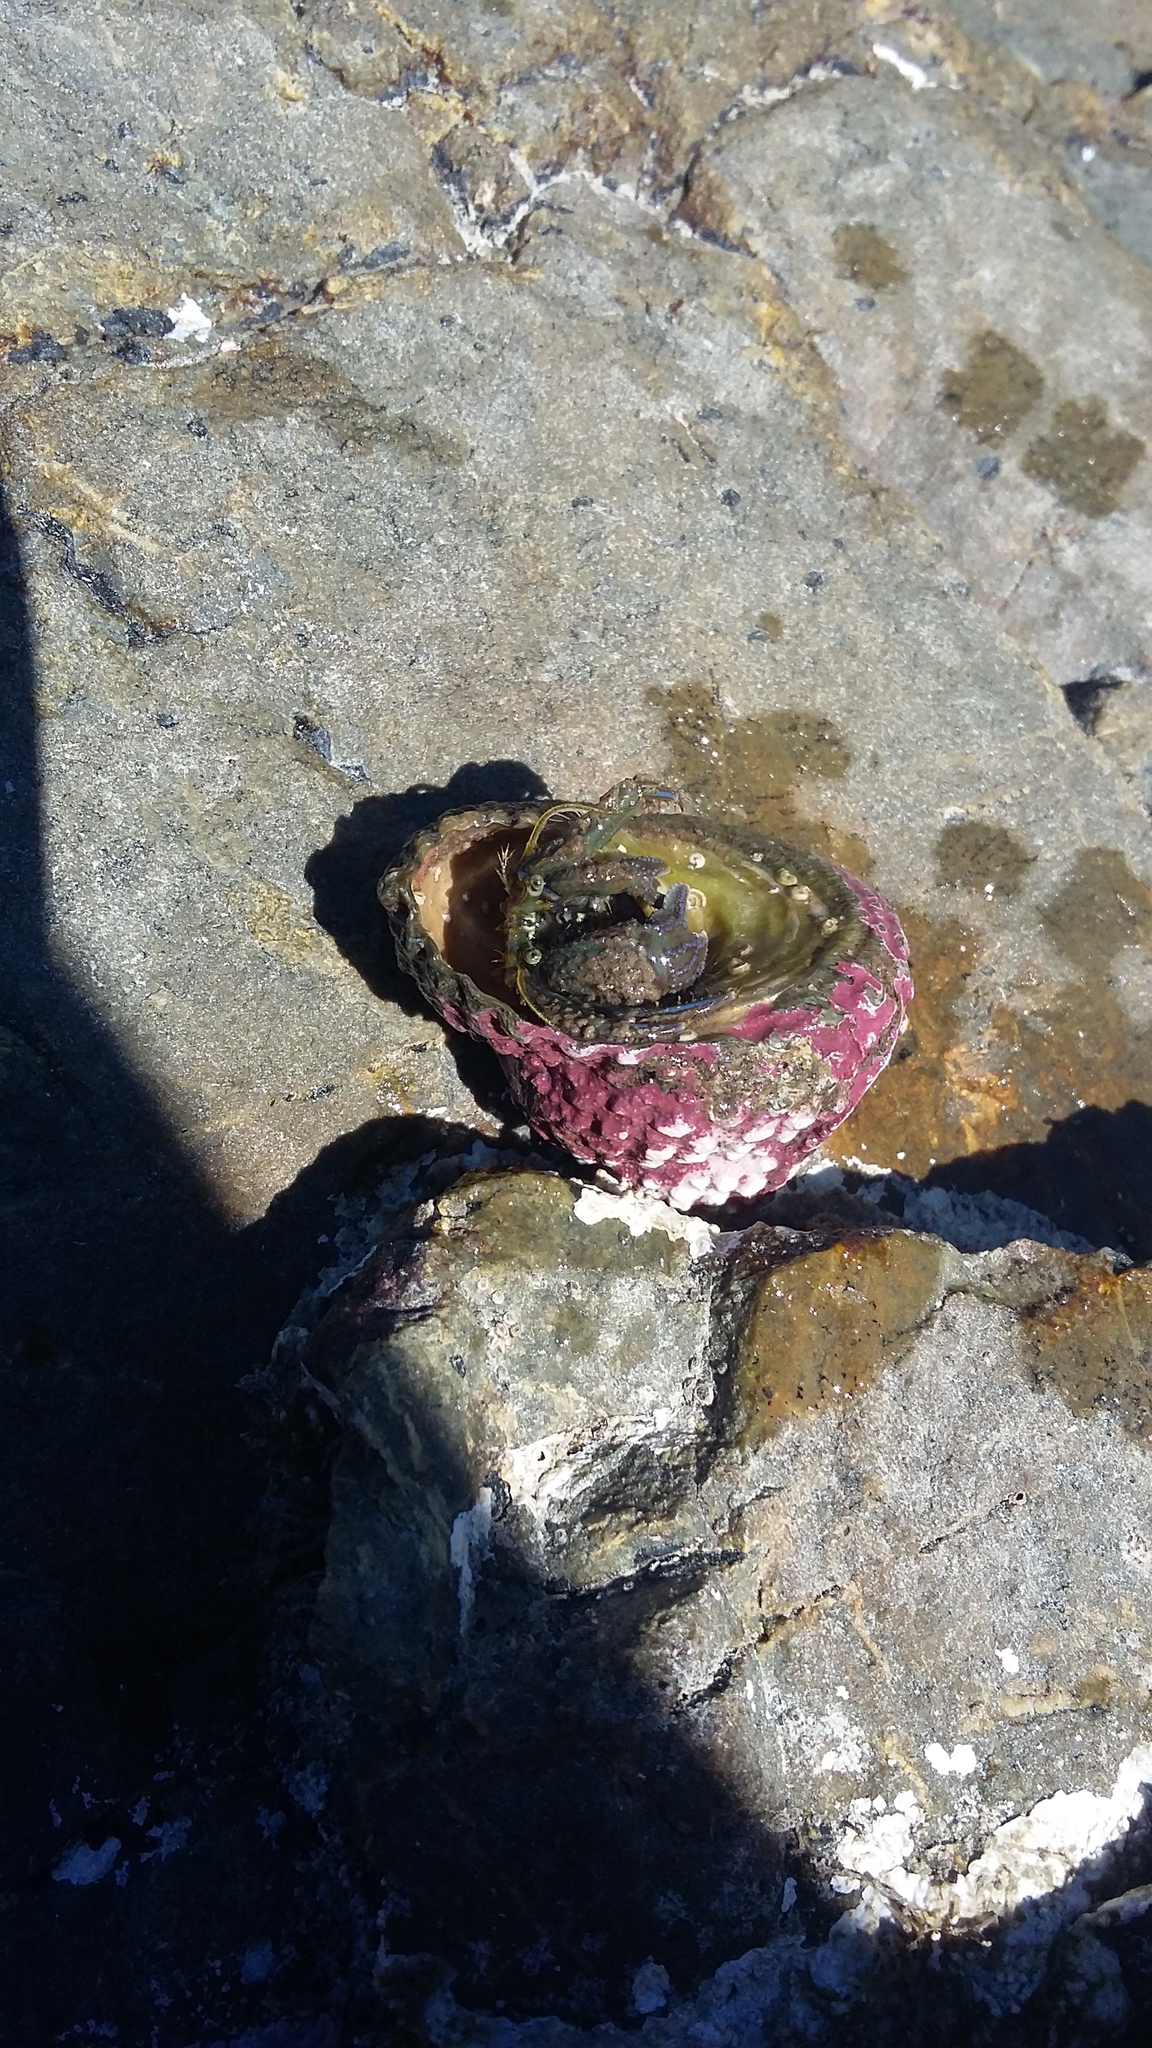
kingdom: Animalia
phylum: Arthropoda
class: Malacostraca
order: Decapoda
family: Paguridae
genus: Pagurus
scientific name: Pagurus novizealandiae
